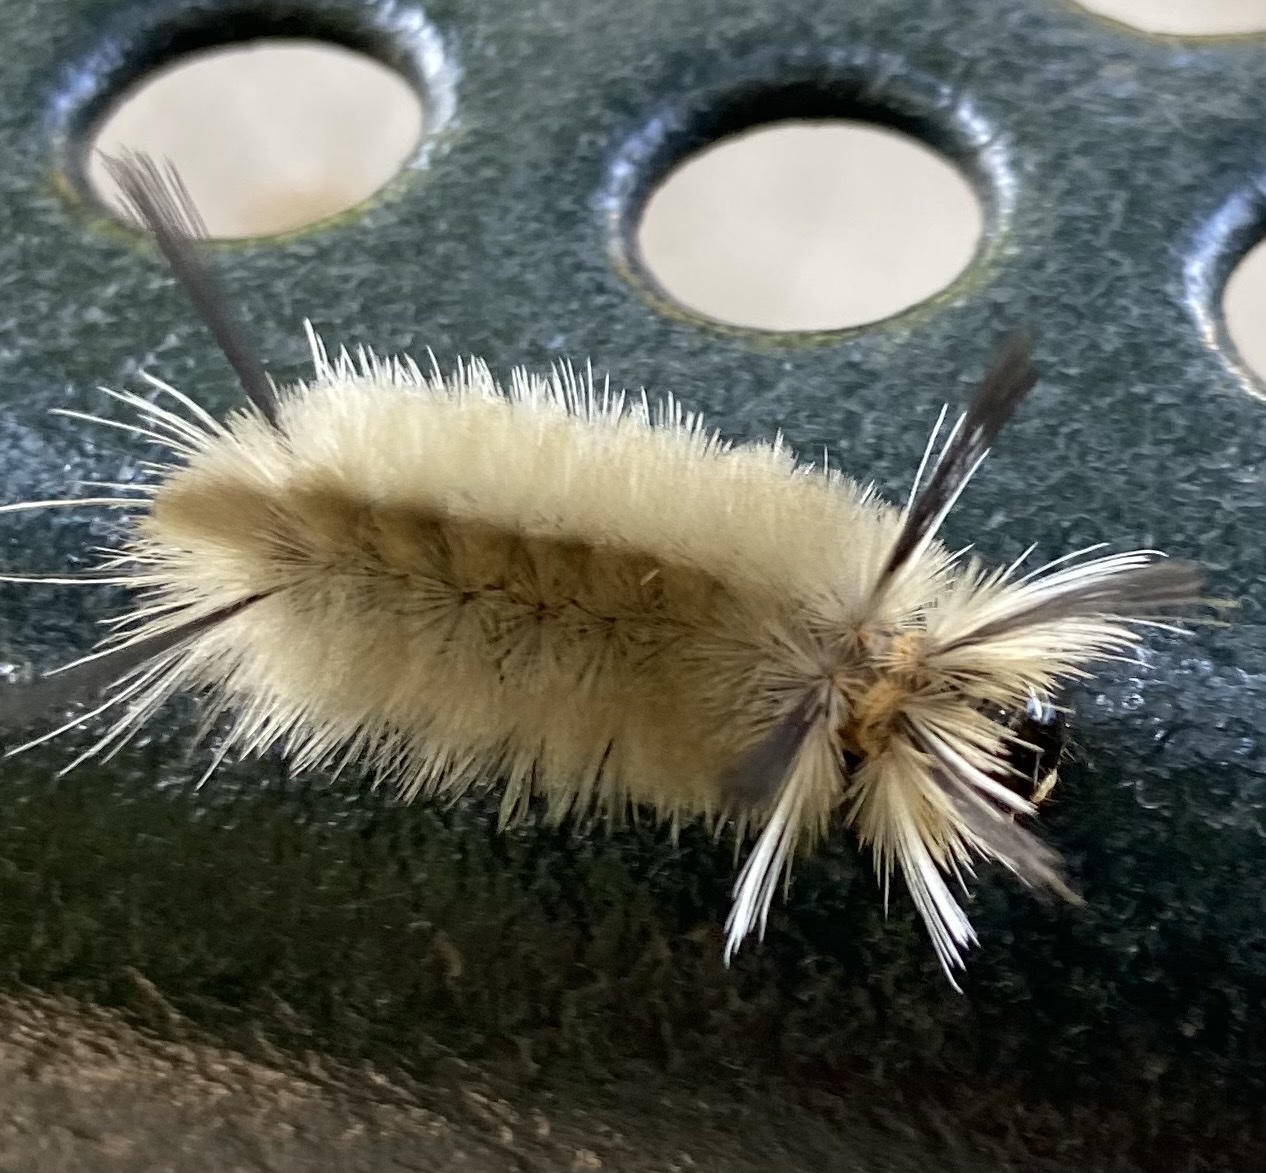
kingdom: Animalia
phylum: Arthropoda
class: Insecta
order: Lepidoptera
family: Erebidae
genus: Halysidota
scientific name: Halysidota tessellaris
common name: Banded tussock moth
